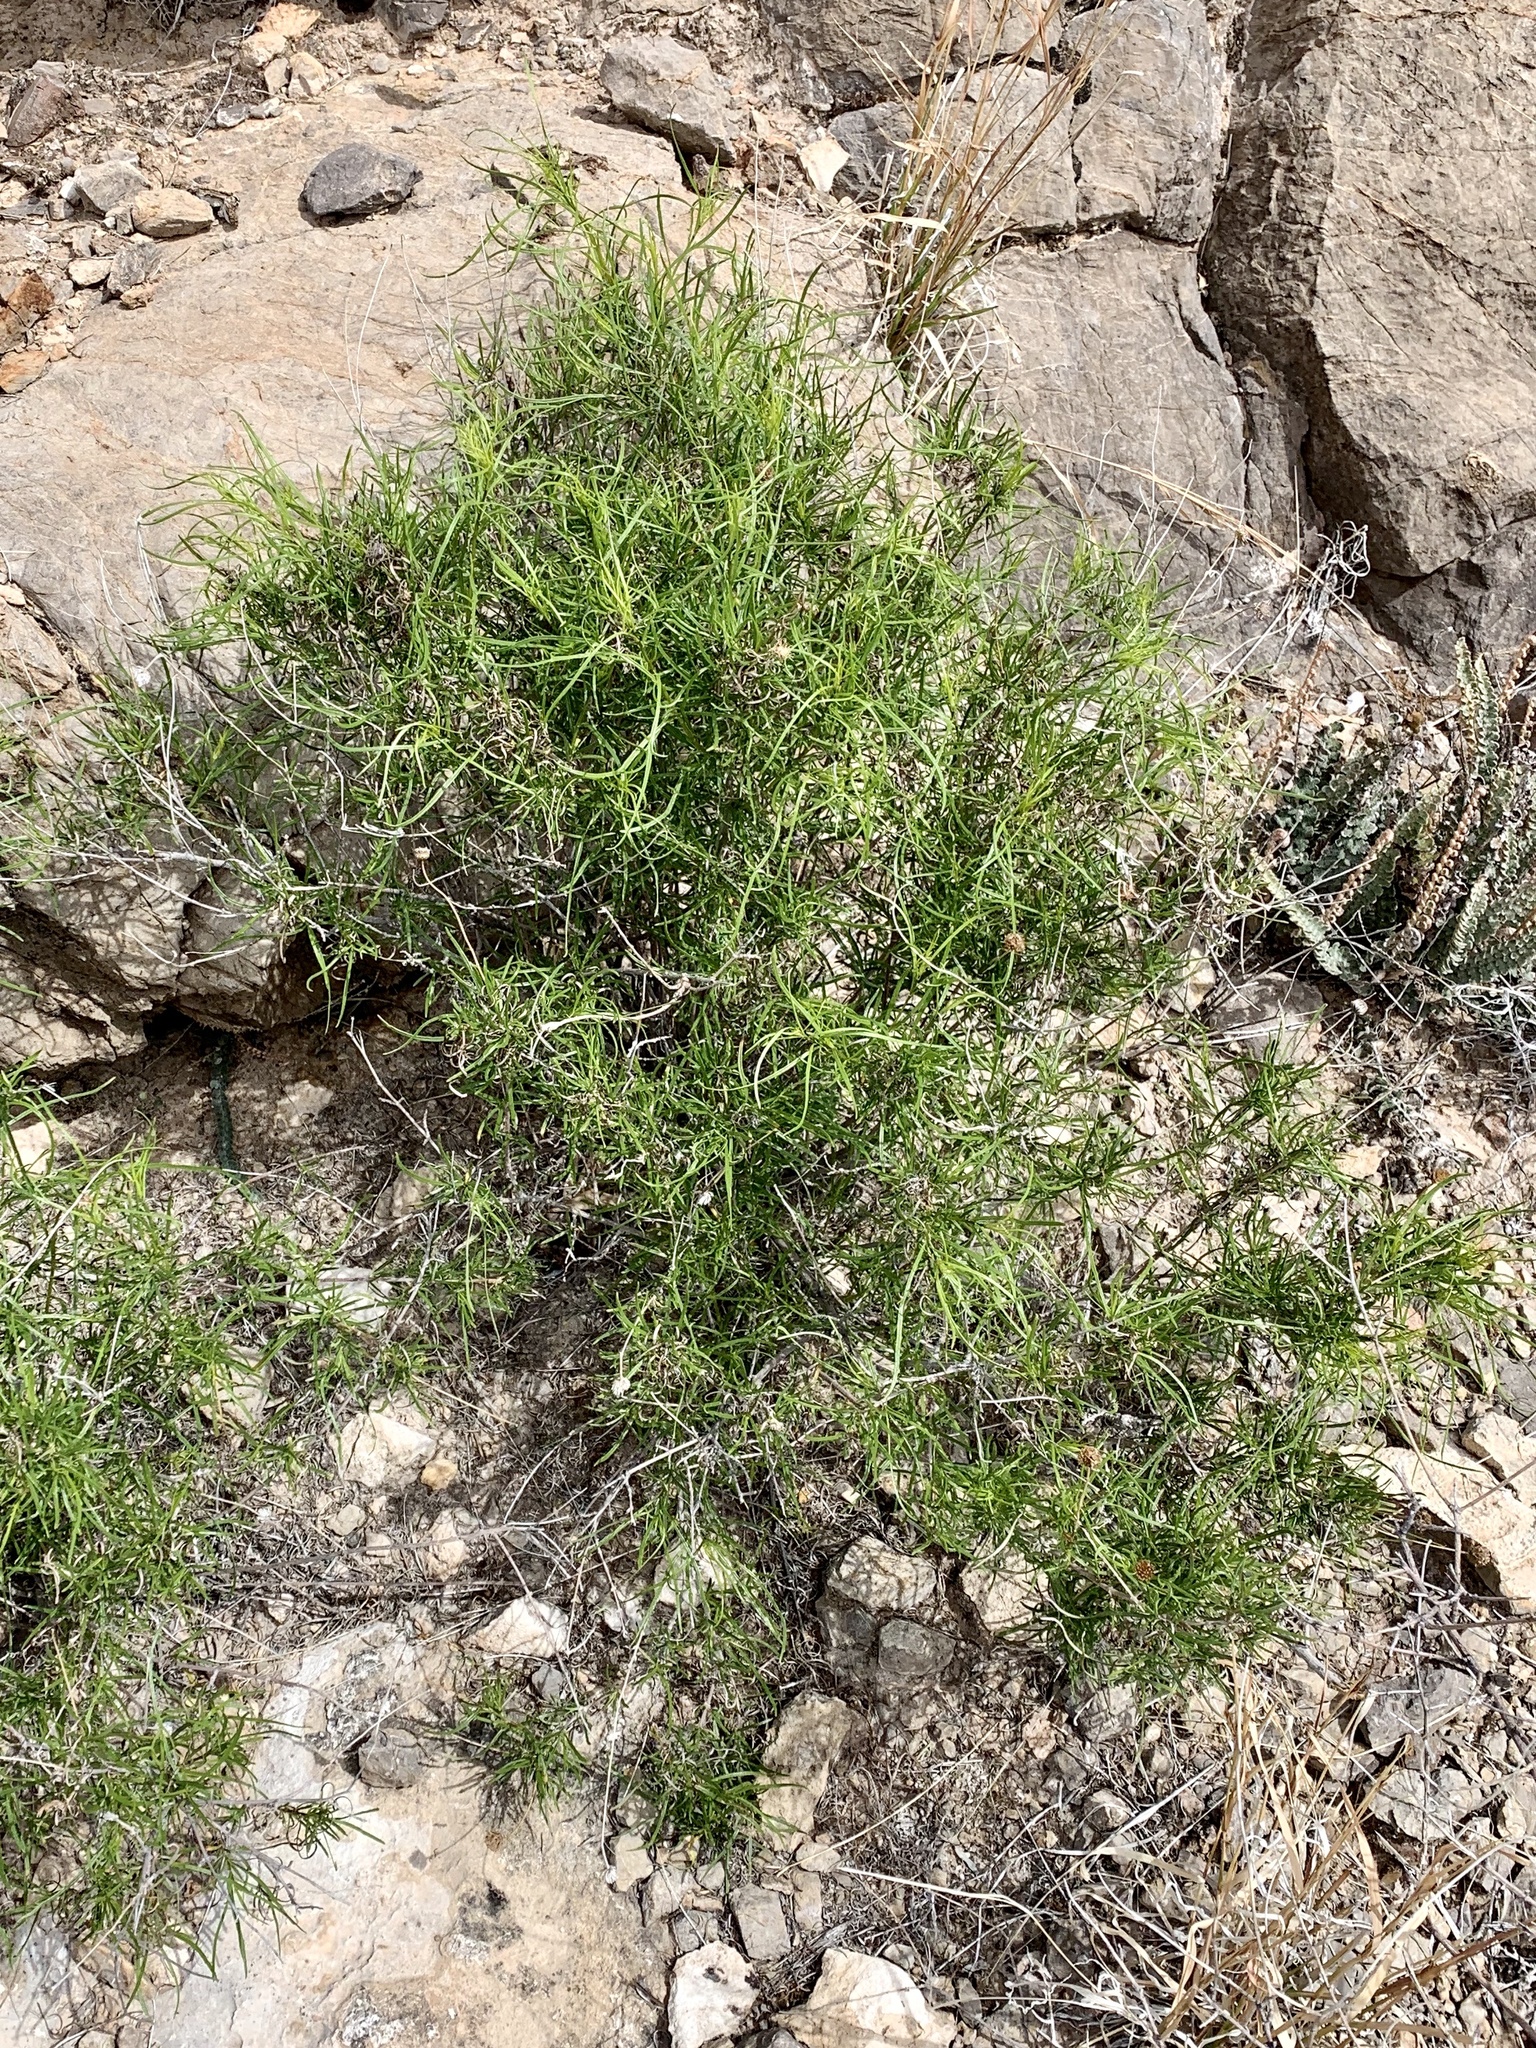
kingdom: Plantae
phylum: Tracheophyta
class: Magnoliopsida
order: Asterales
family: Asteraceae
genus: Sidneya
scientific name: Sidneya tenuifolia
